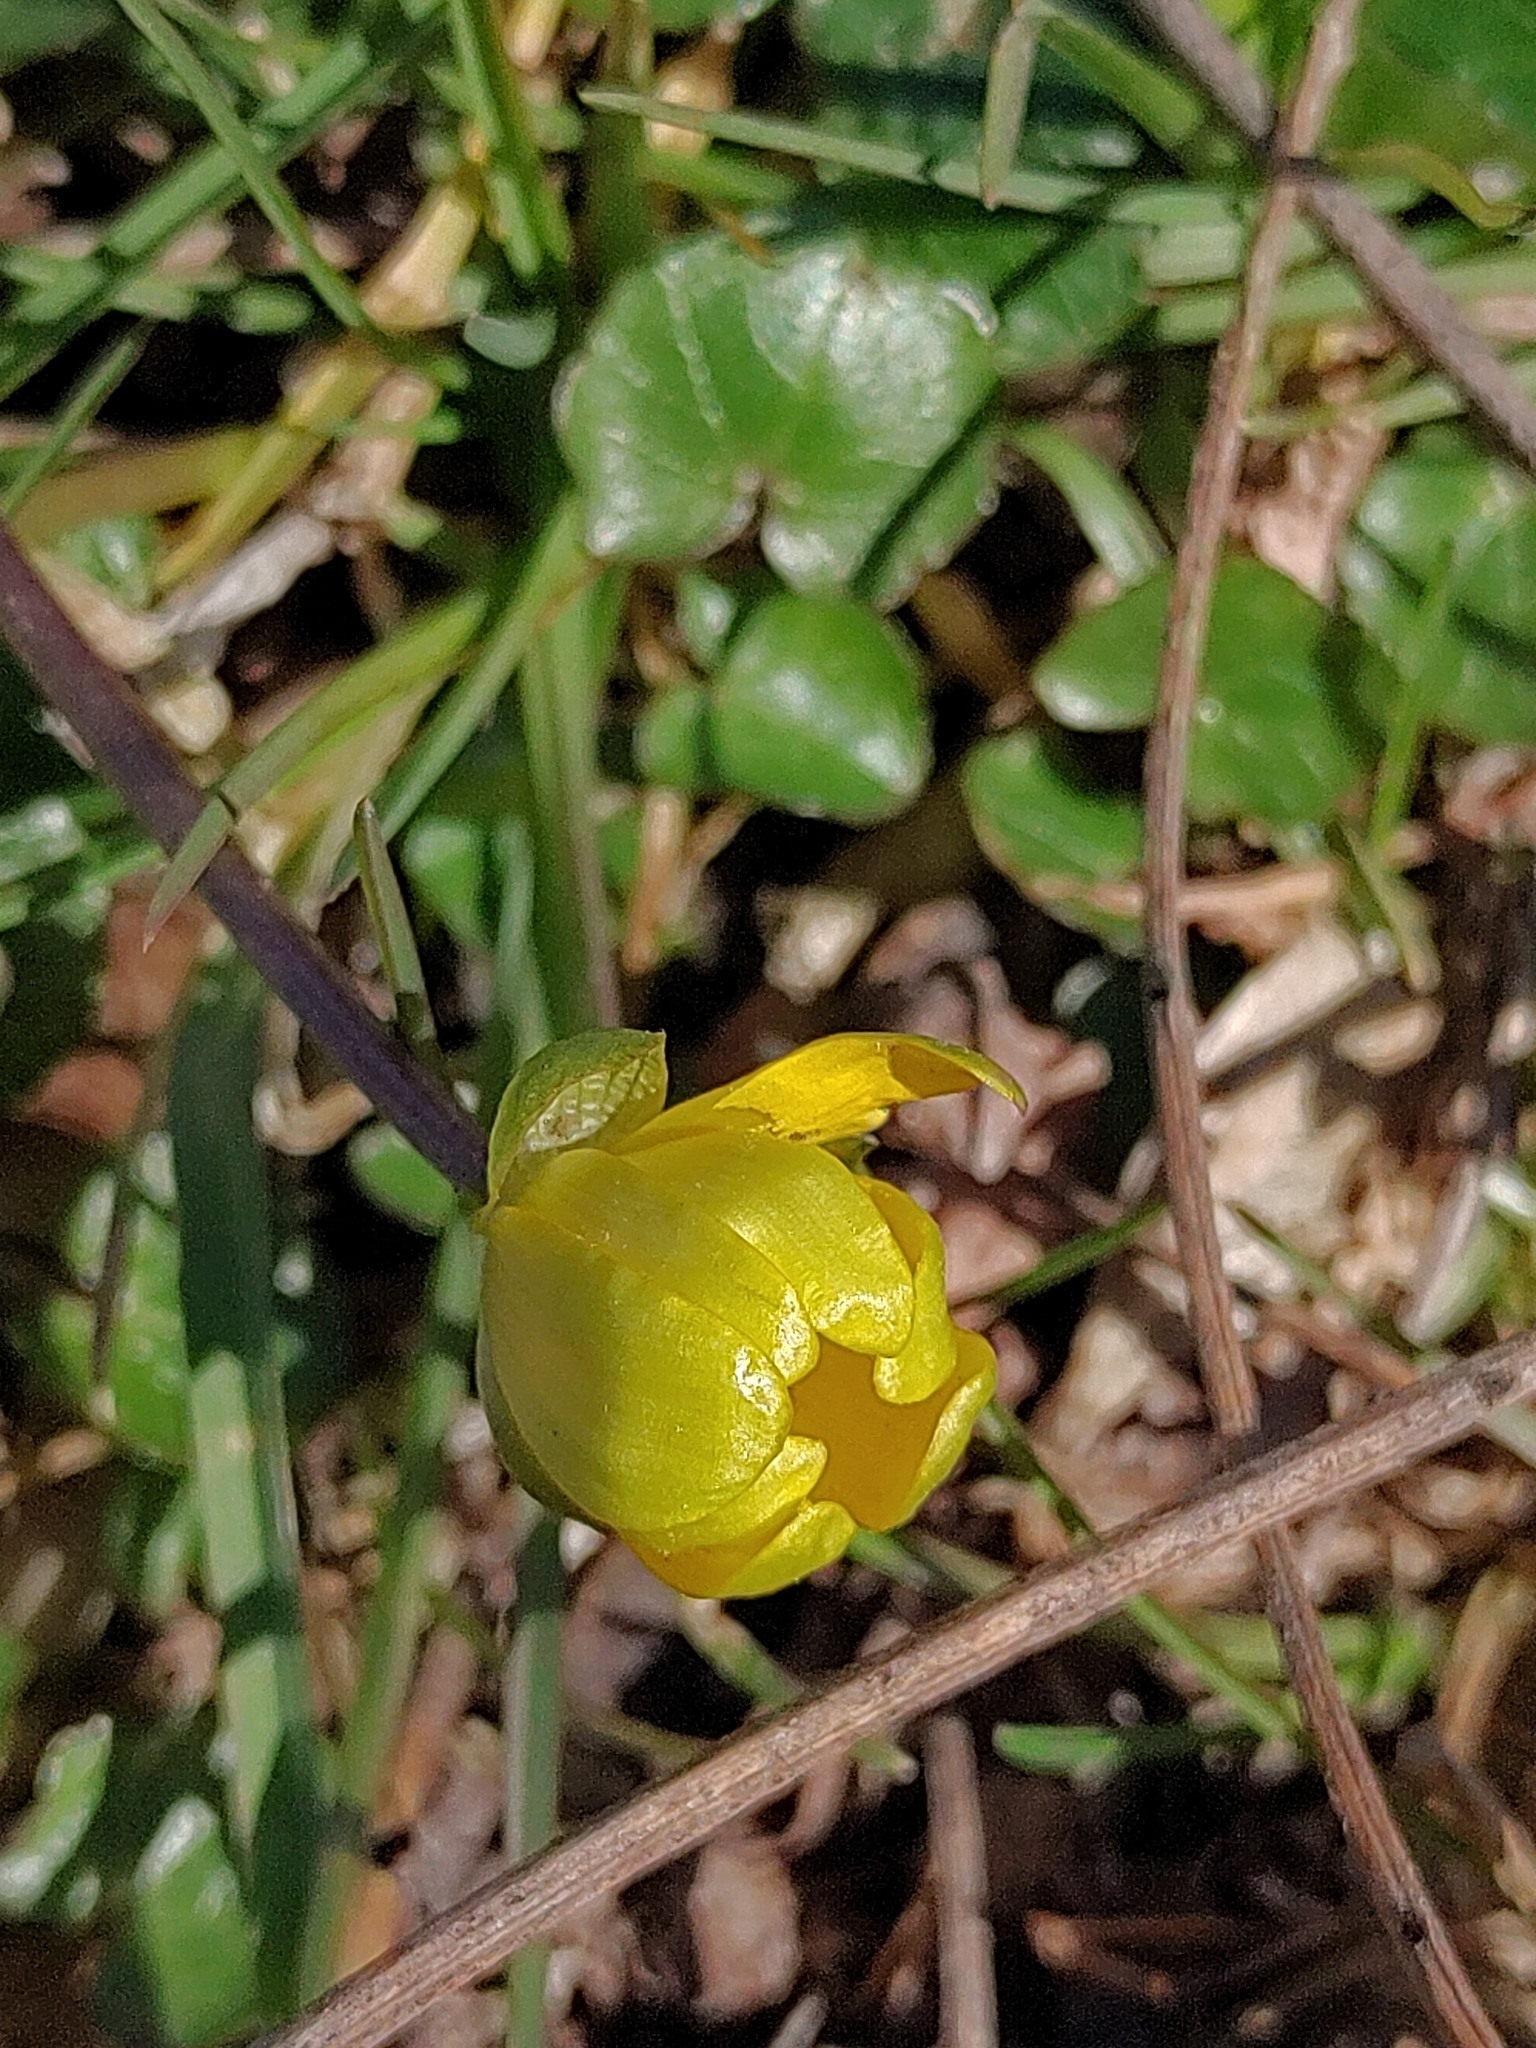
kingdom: Plantae
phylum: Tracheophyta
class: Magnoliopsida
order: Ranunculales
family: Ranunculaceae
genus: Ficaria
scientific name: Ficaria verna
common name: Lesser celandine
